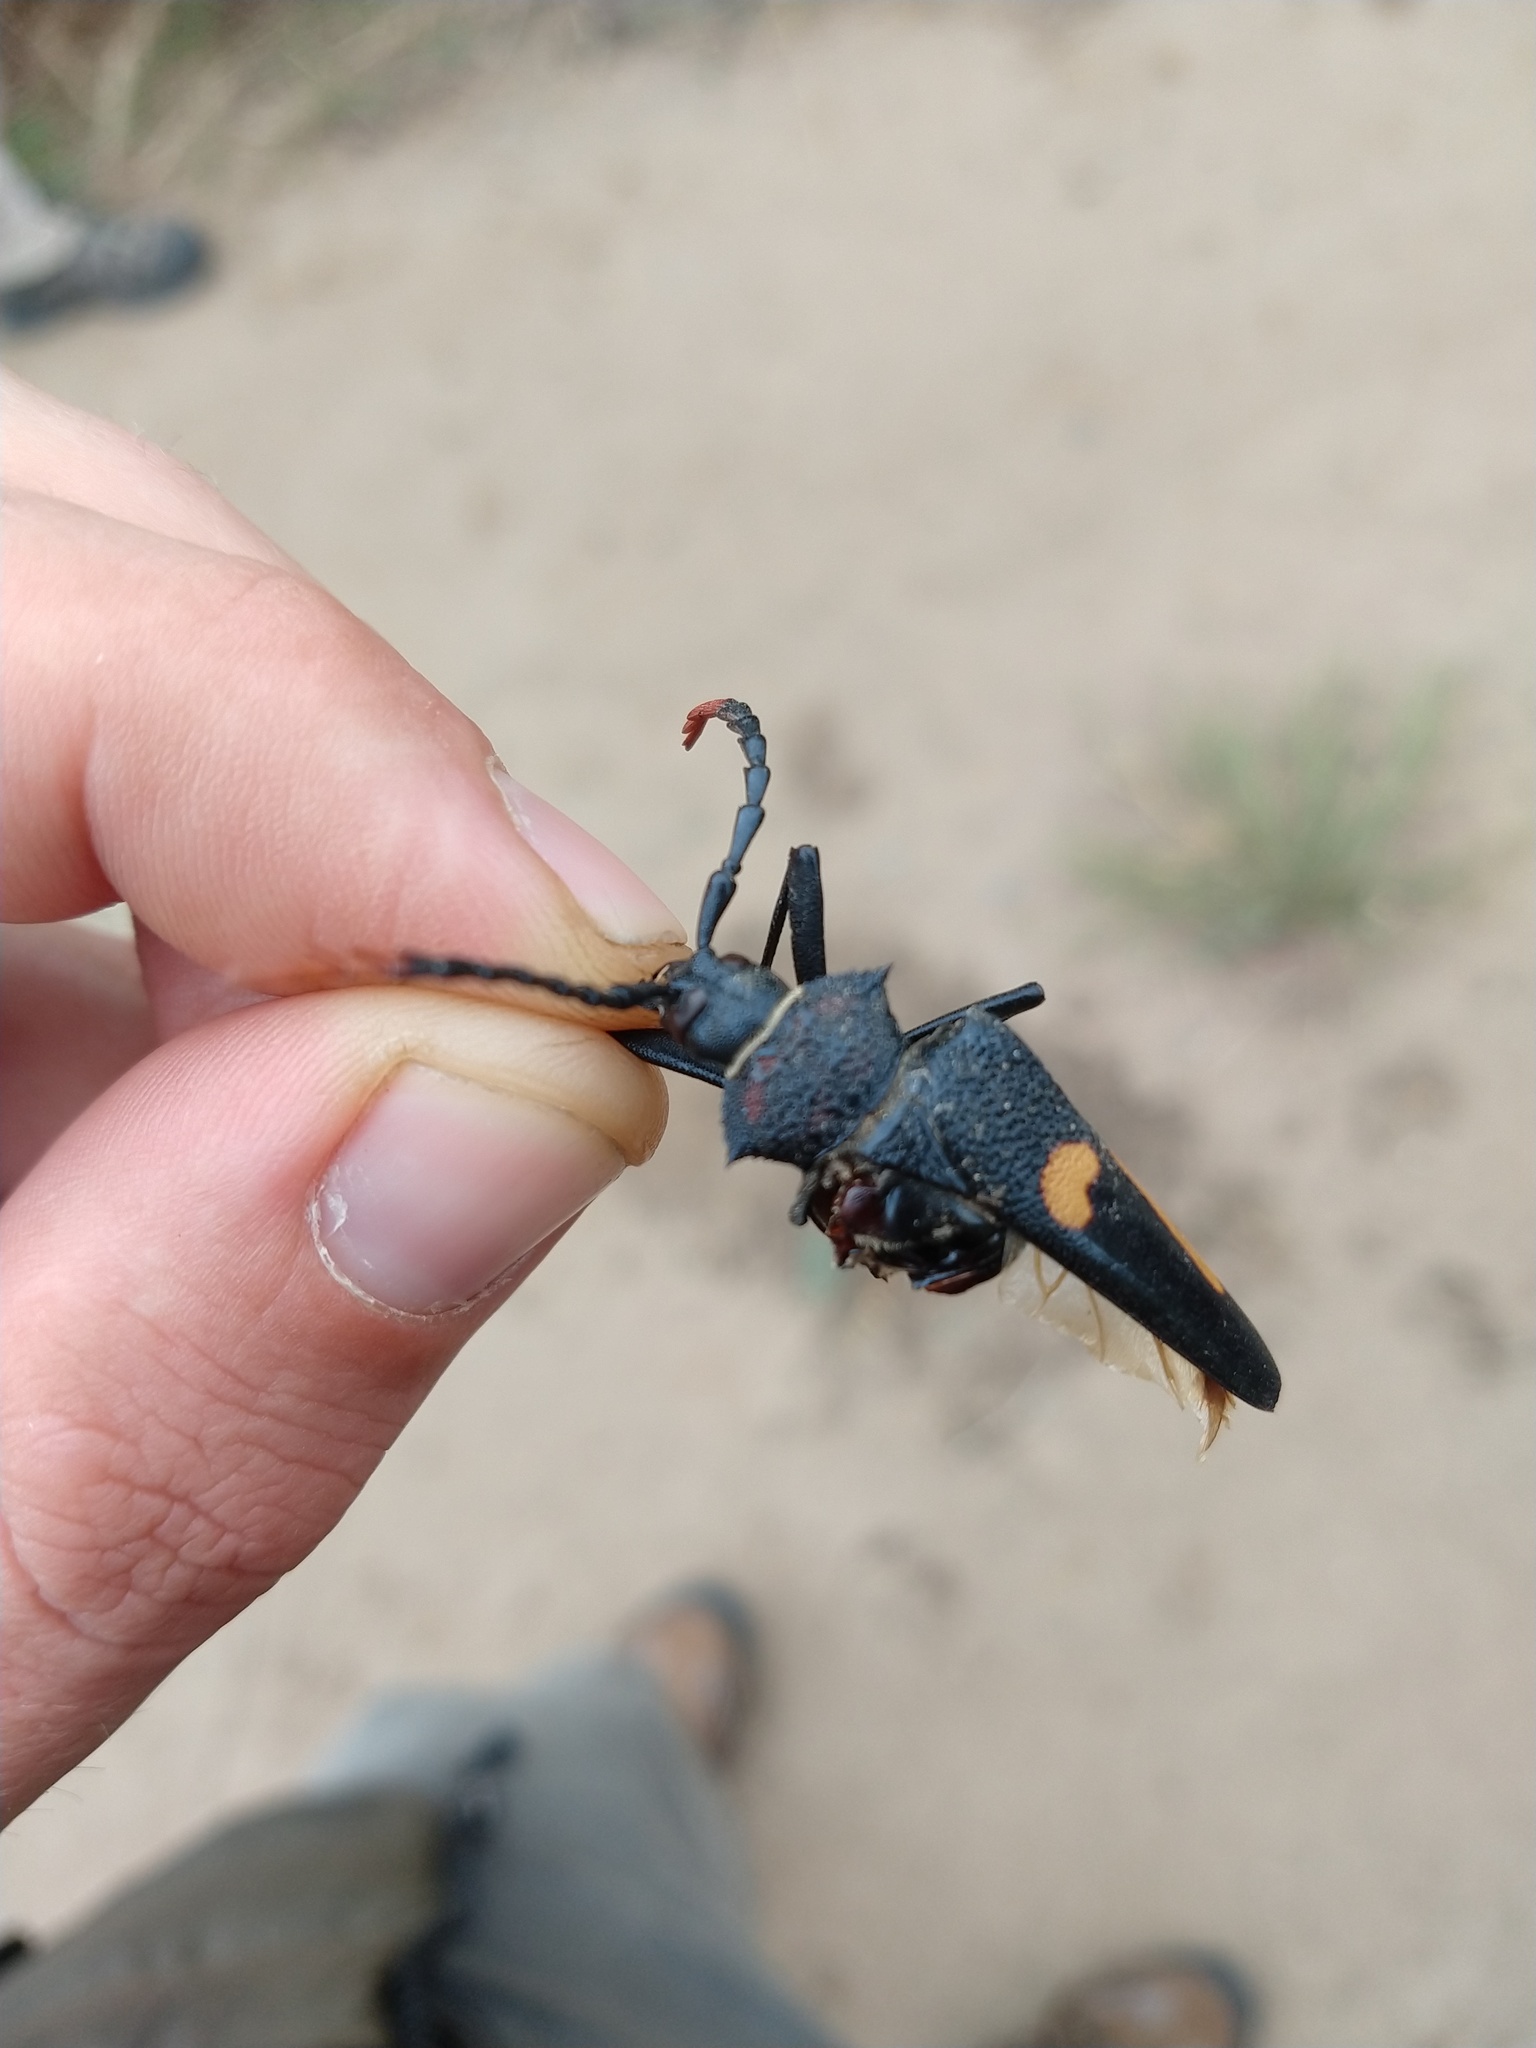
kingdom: Animalia
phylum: Arthropoda
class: Insecta
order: Coleoptera
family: Cerambycidae
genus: Calocomus
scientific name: Calocomus desmarestii
